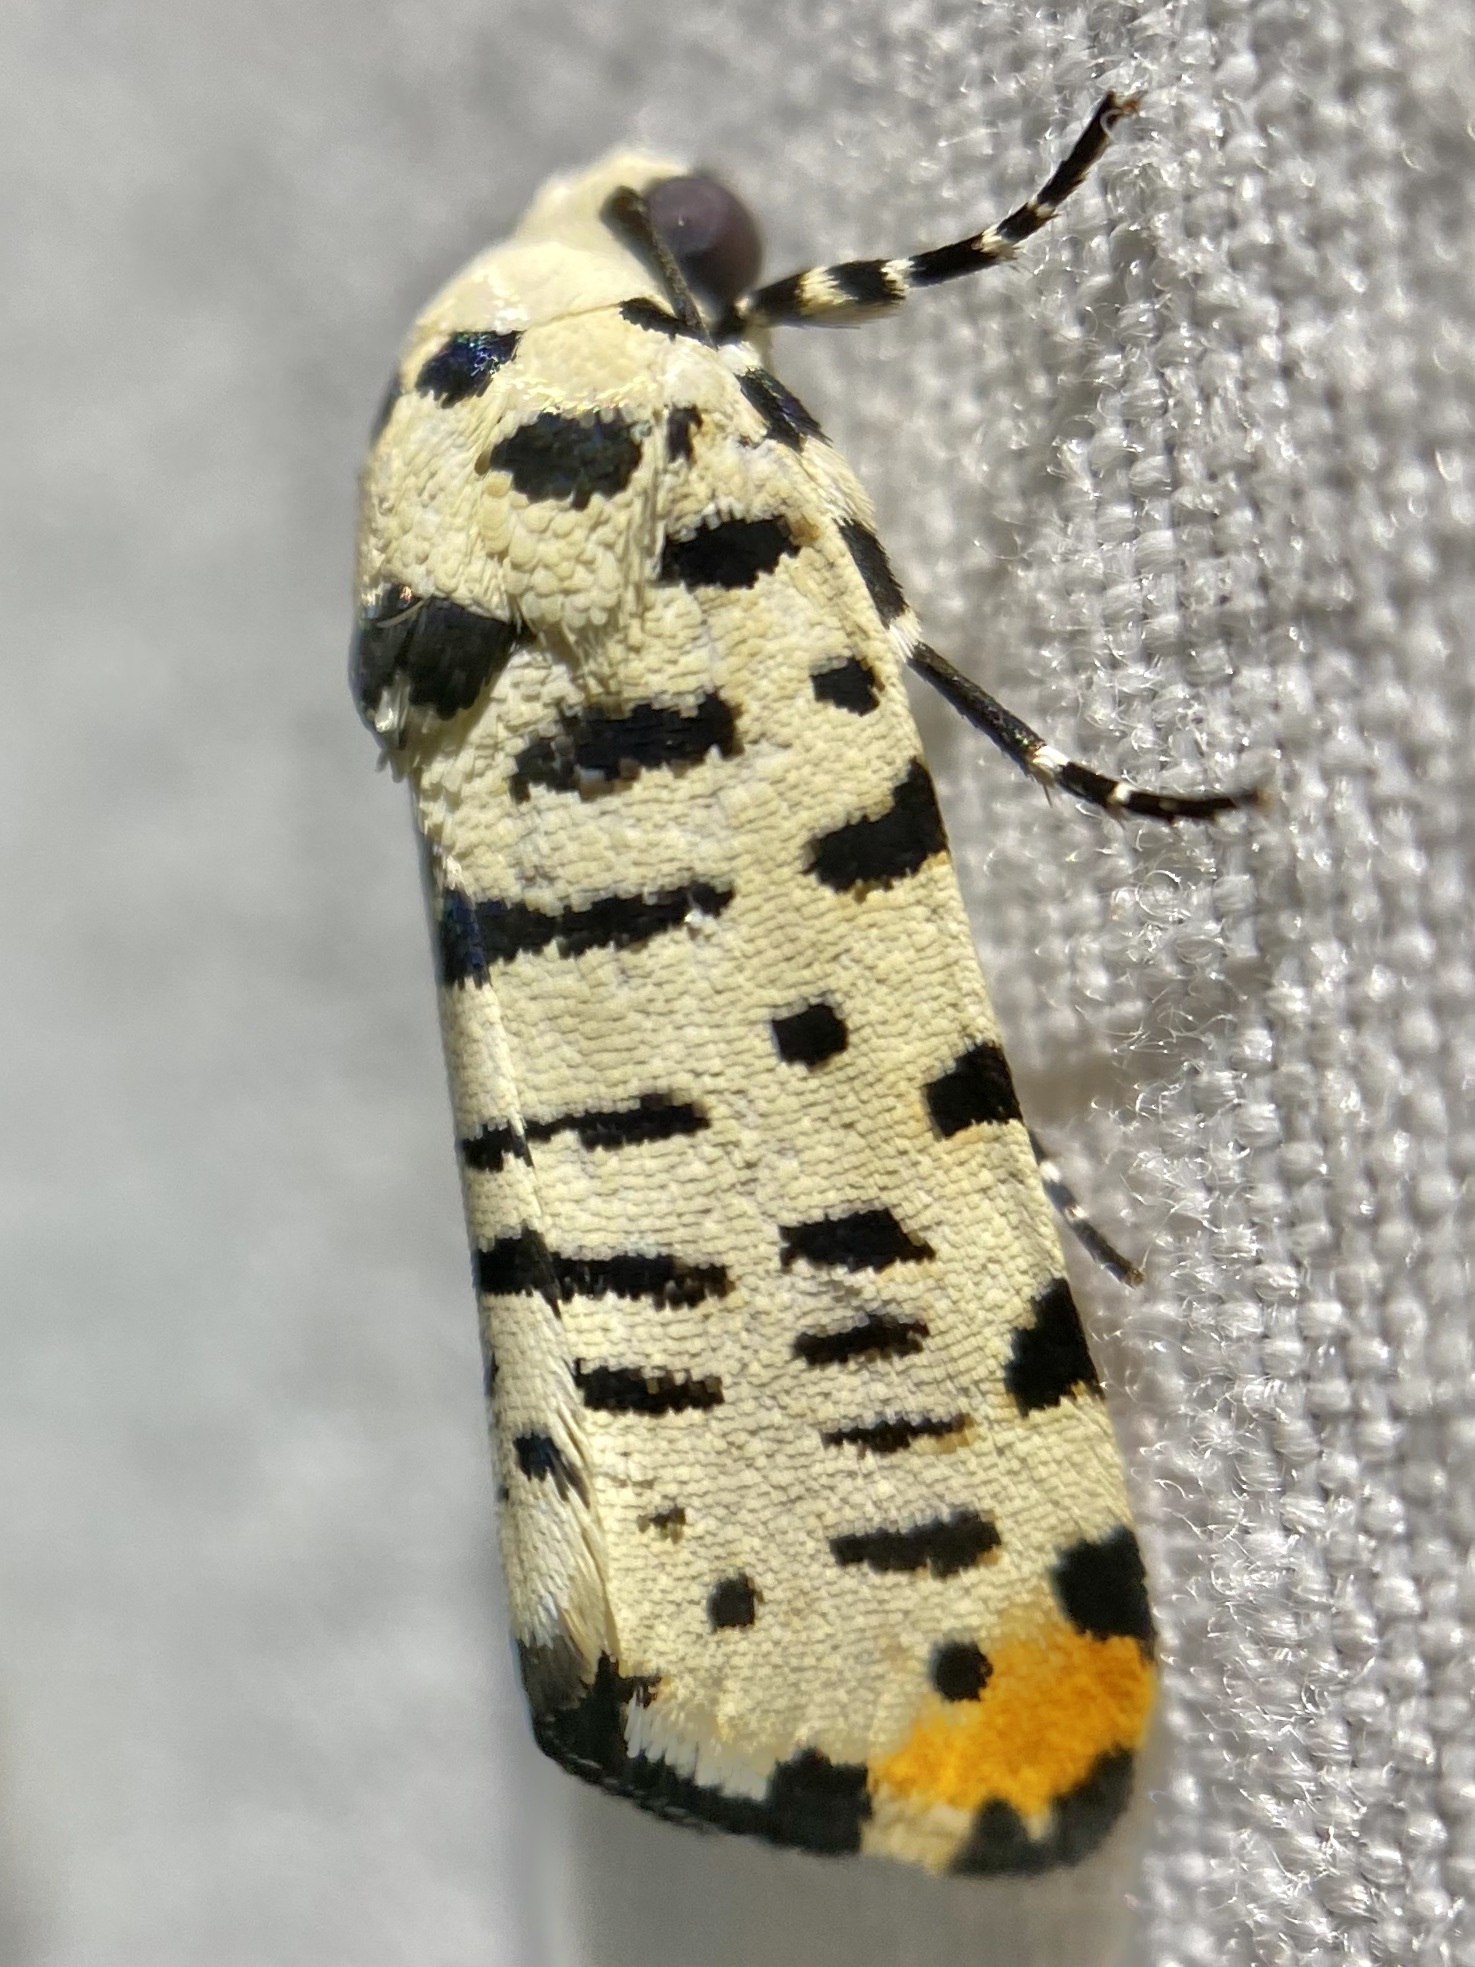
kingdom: Animalia
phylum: Arthropoda
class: Insecta
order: Lepidoptera
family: Noctuidae
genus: Acontia
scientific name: Acontia idella
